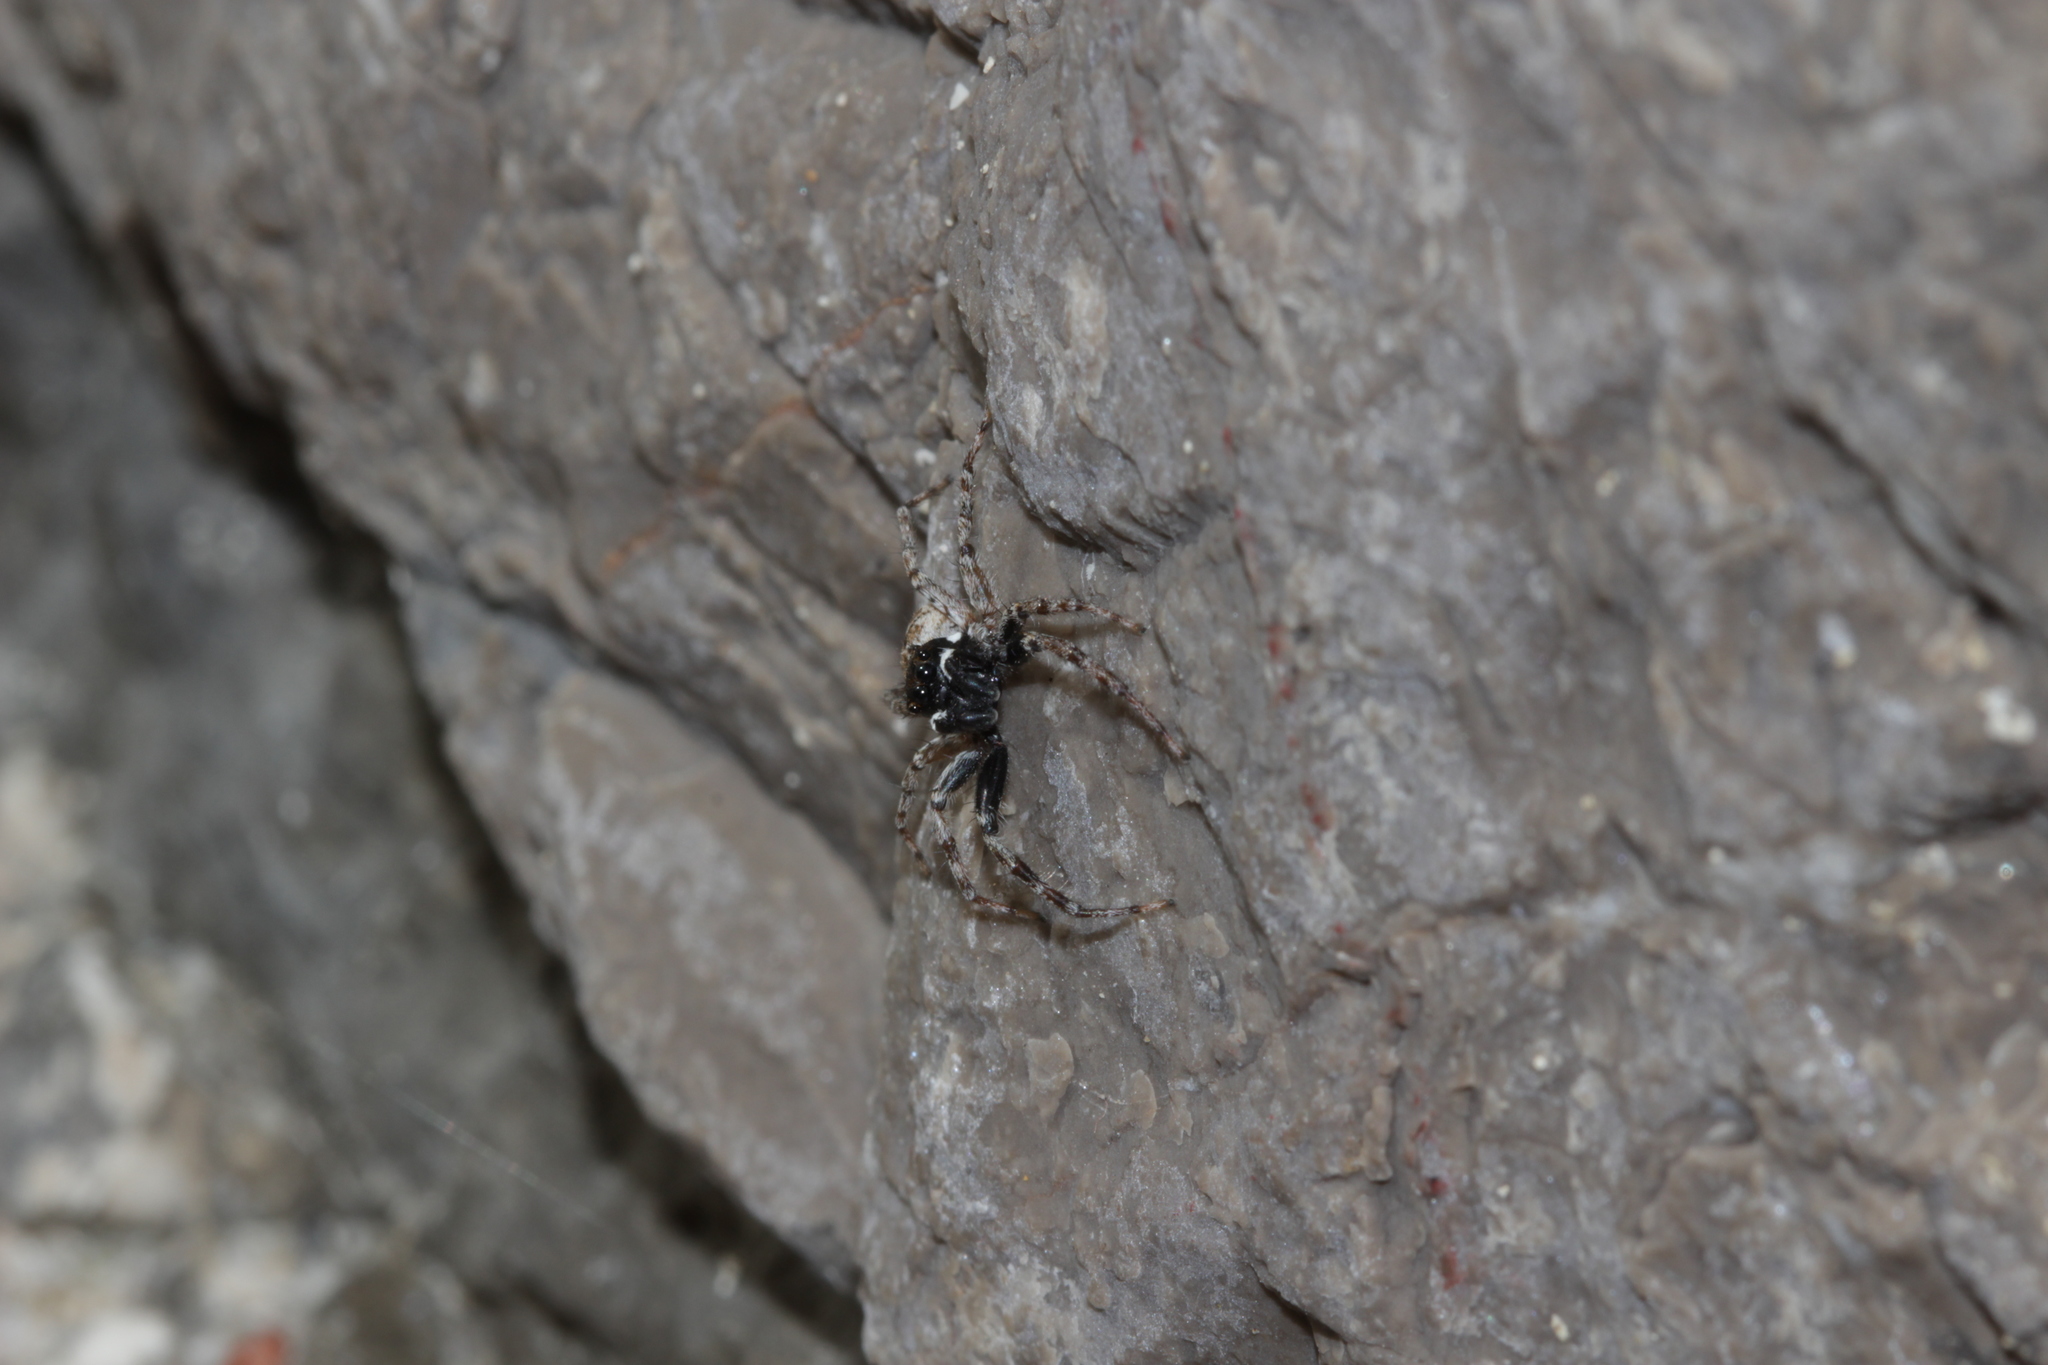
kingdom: Animalia
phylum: Arthropoda
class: Arachnida
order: Araneae
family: Salticidae
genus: Menemerus
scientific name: Menemerus semilimbatus
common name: Jumping spider
